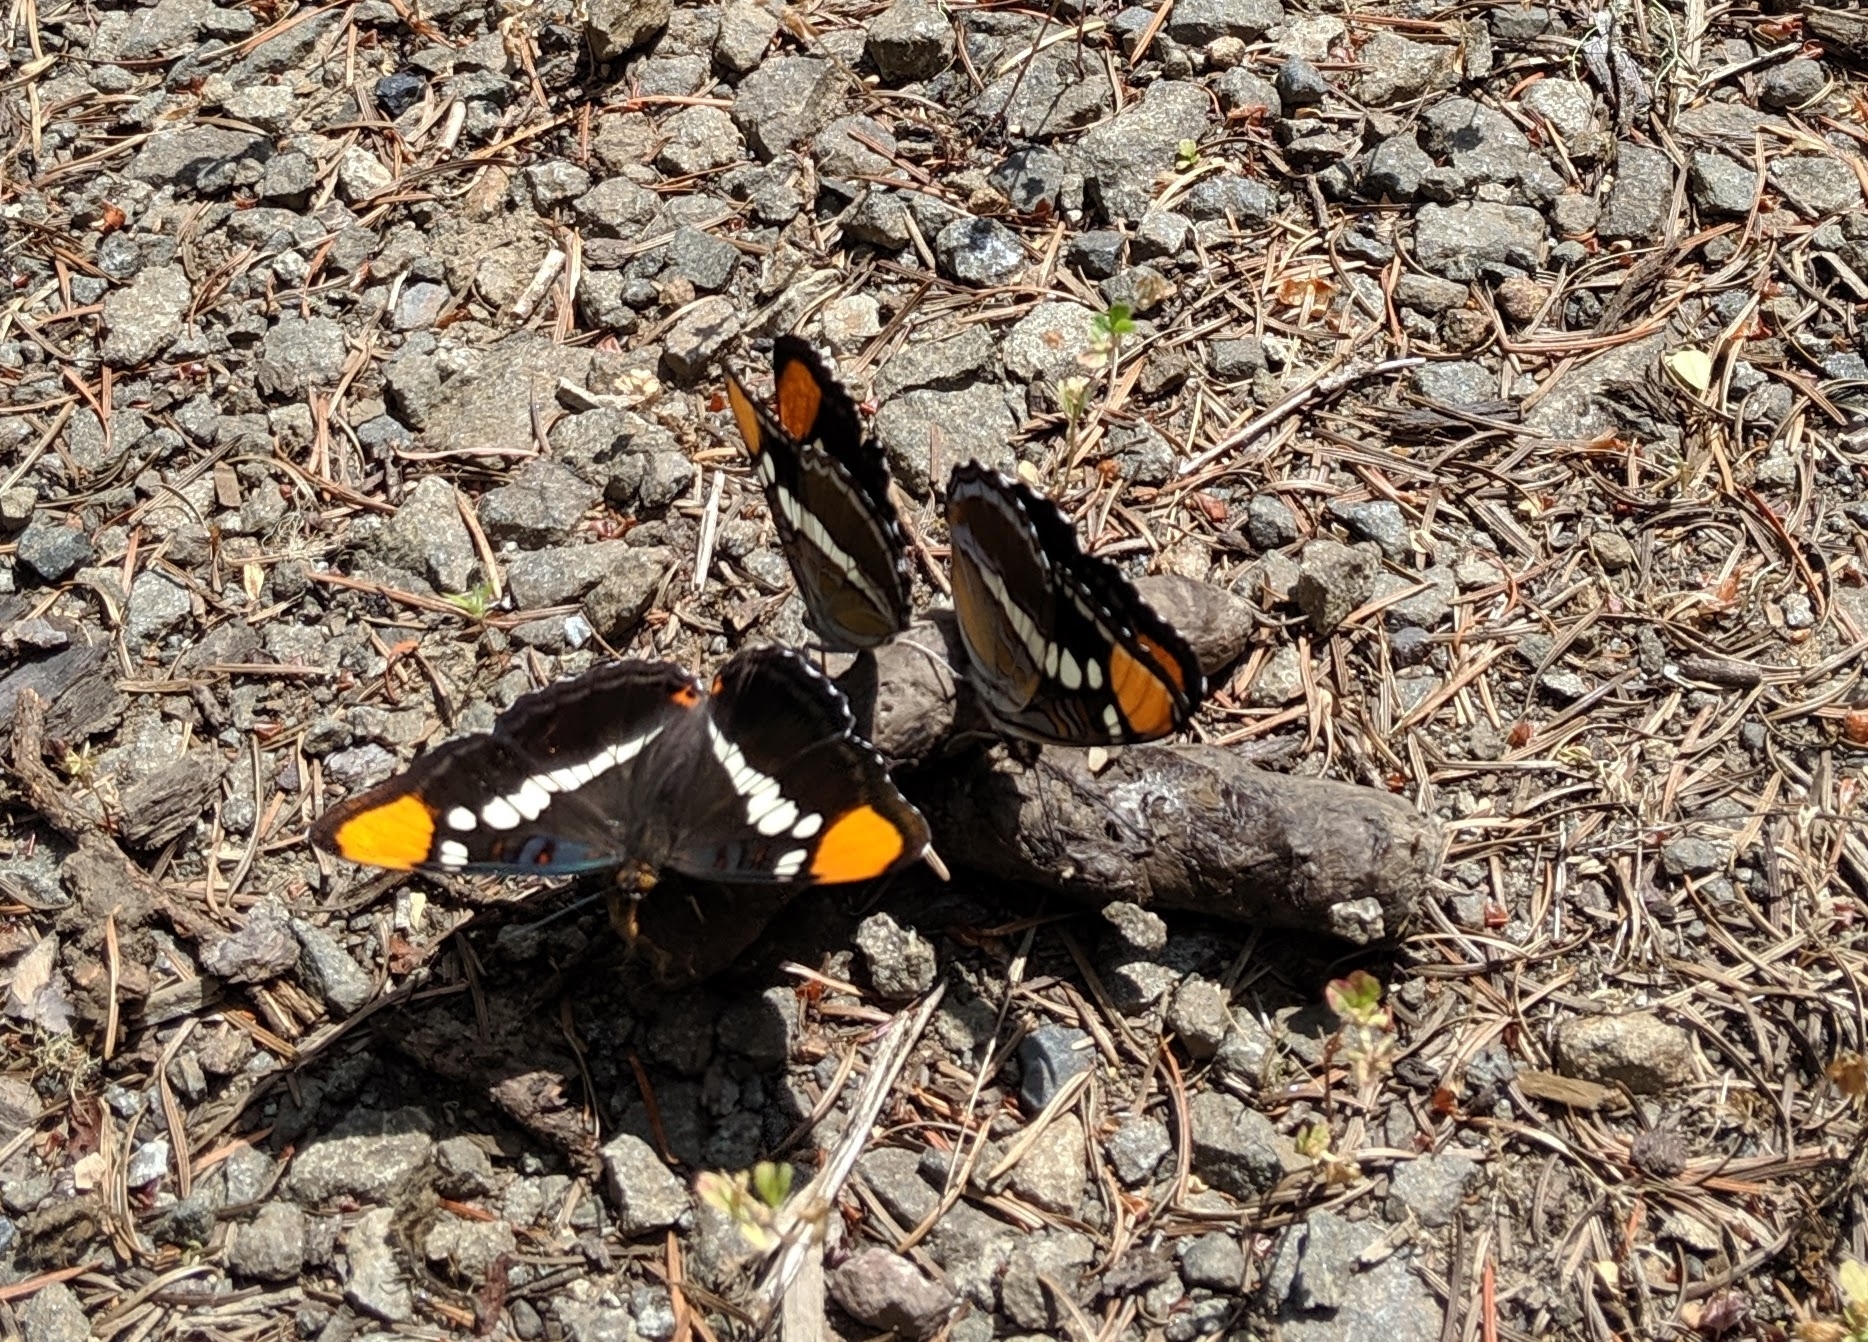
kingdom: Animalia
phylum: Arthropoda
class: Insecta
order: Lepidoptera
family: Nymphalidae
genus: Limenitis
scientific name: Limenitis bredowii
